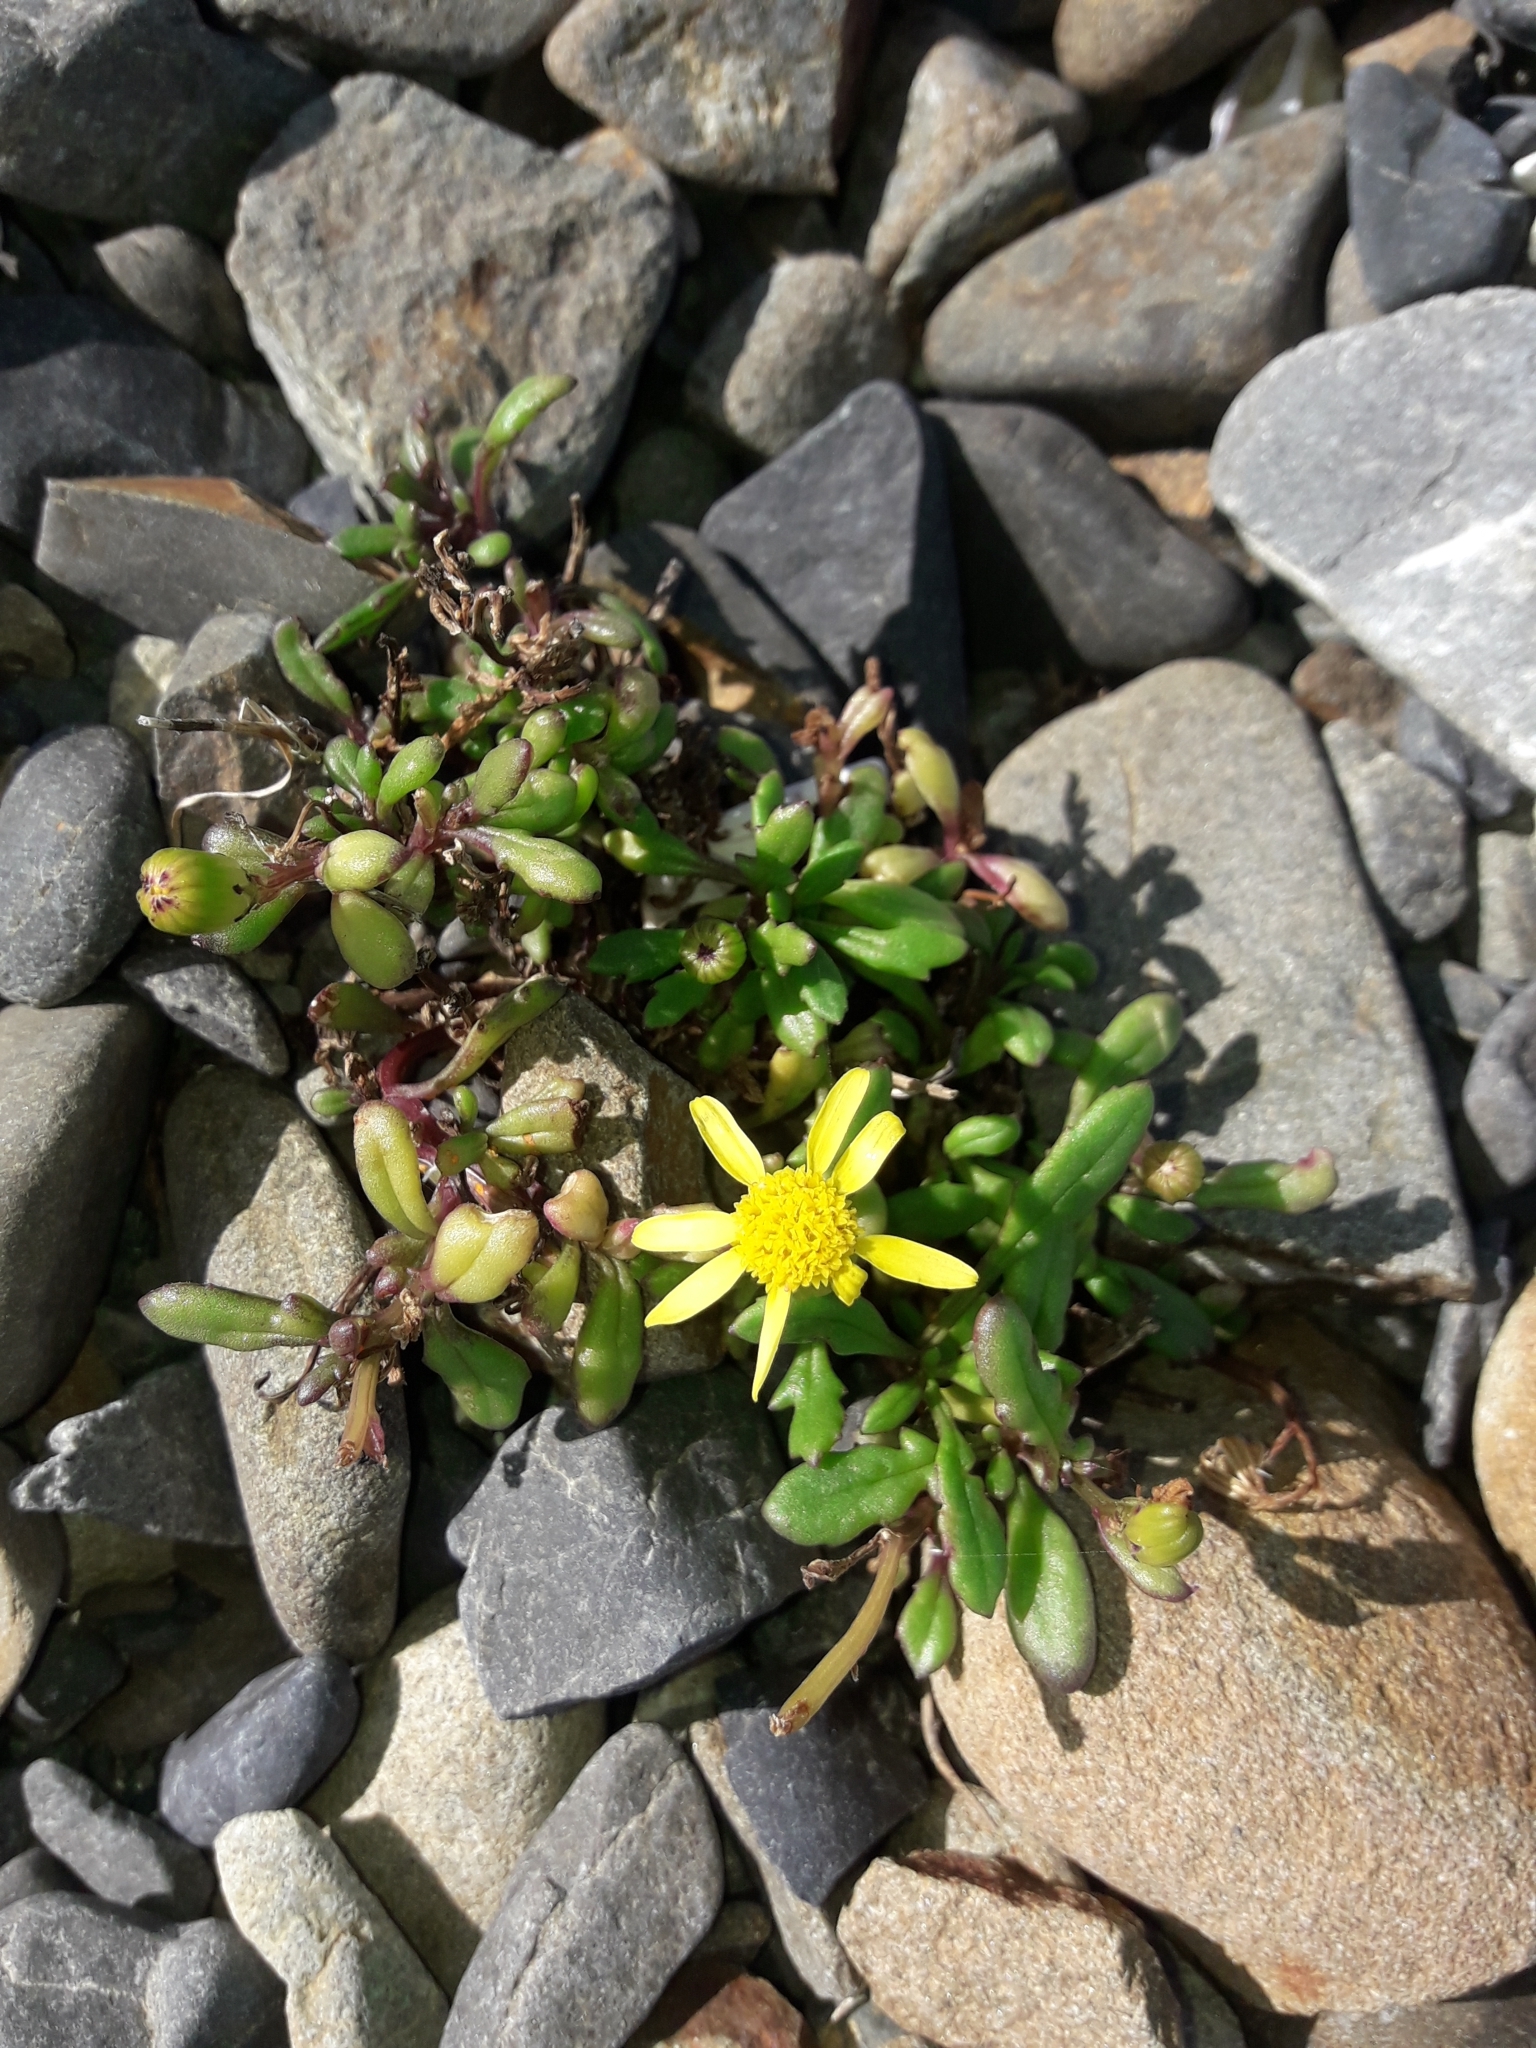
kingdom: Plantae
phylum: Tracheophyta
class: Magnoliopsida
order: Asterales
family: Asteraceae
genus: Senecio
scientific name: Senecio lautus
